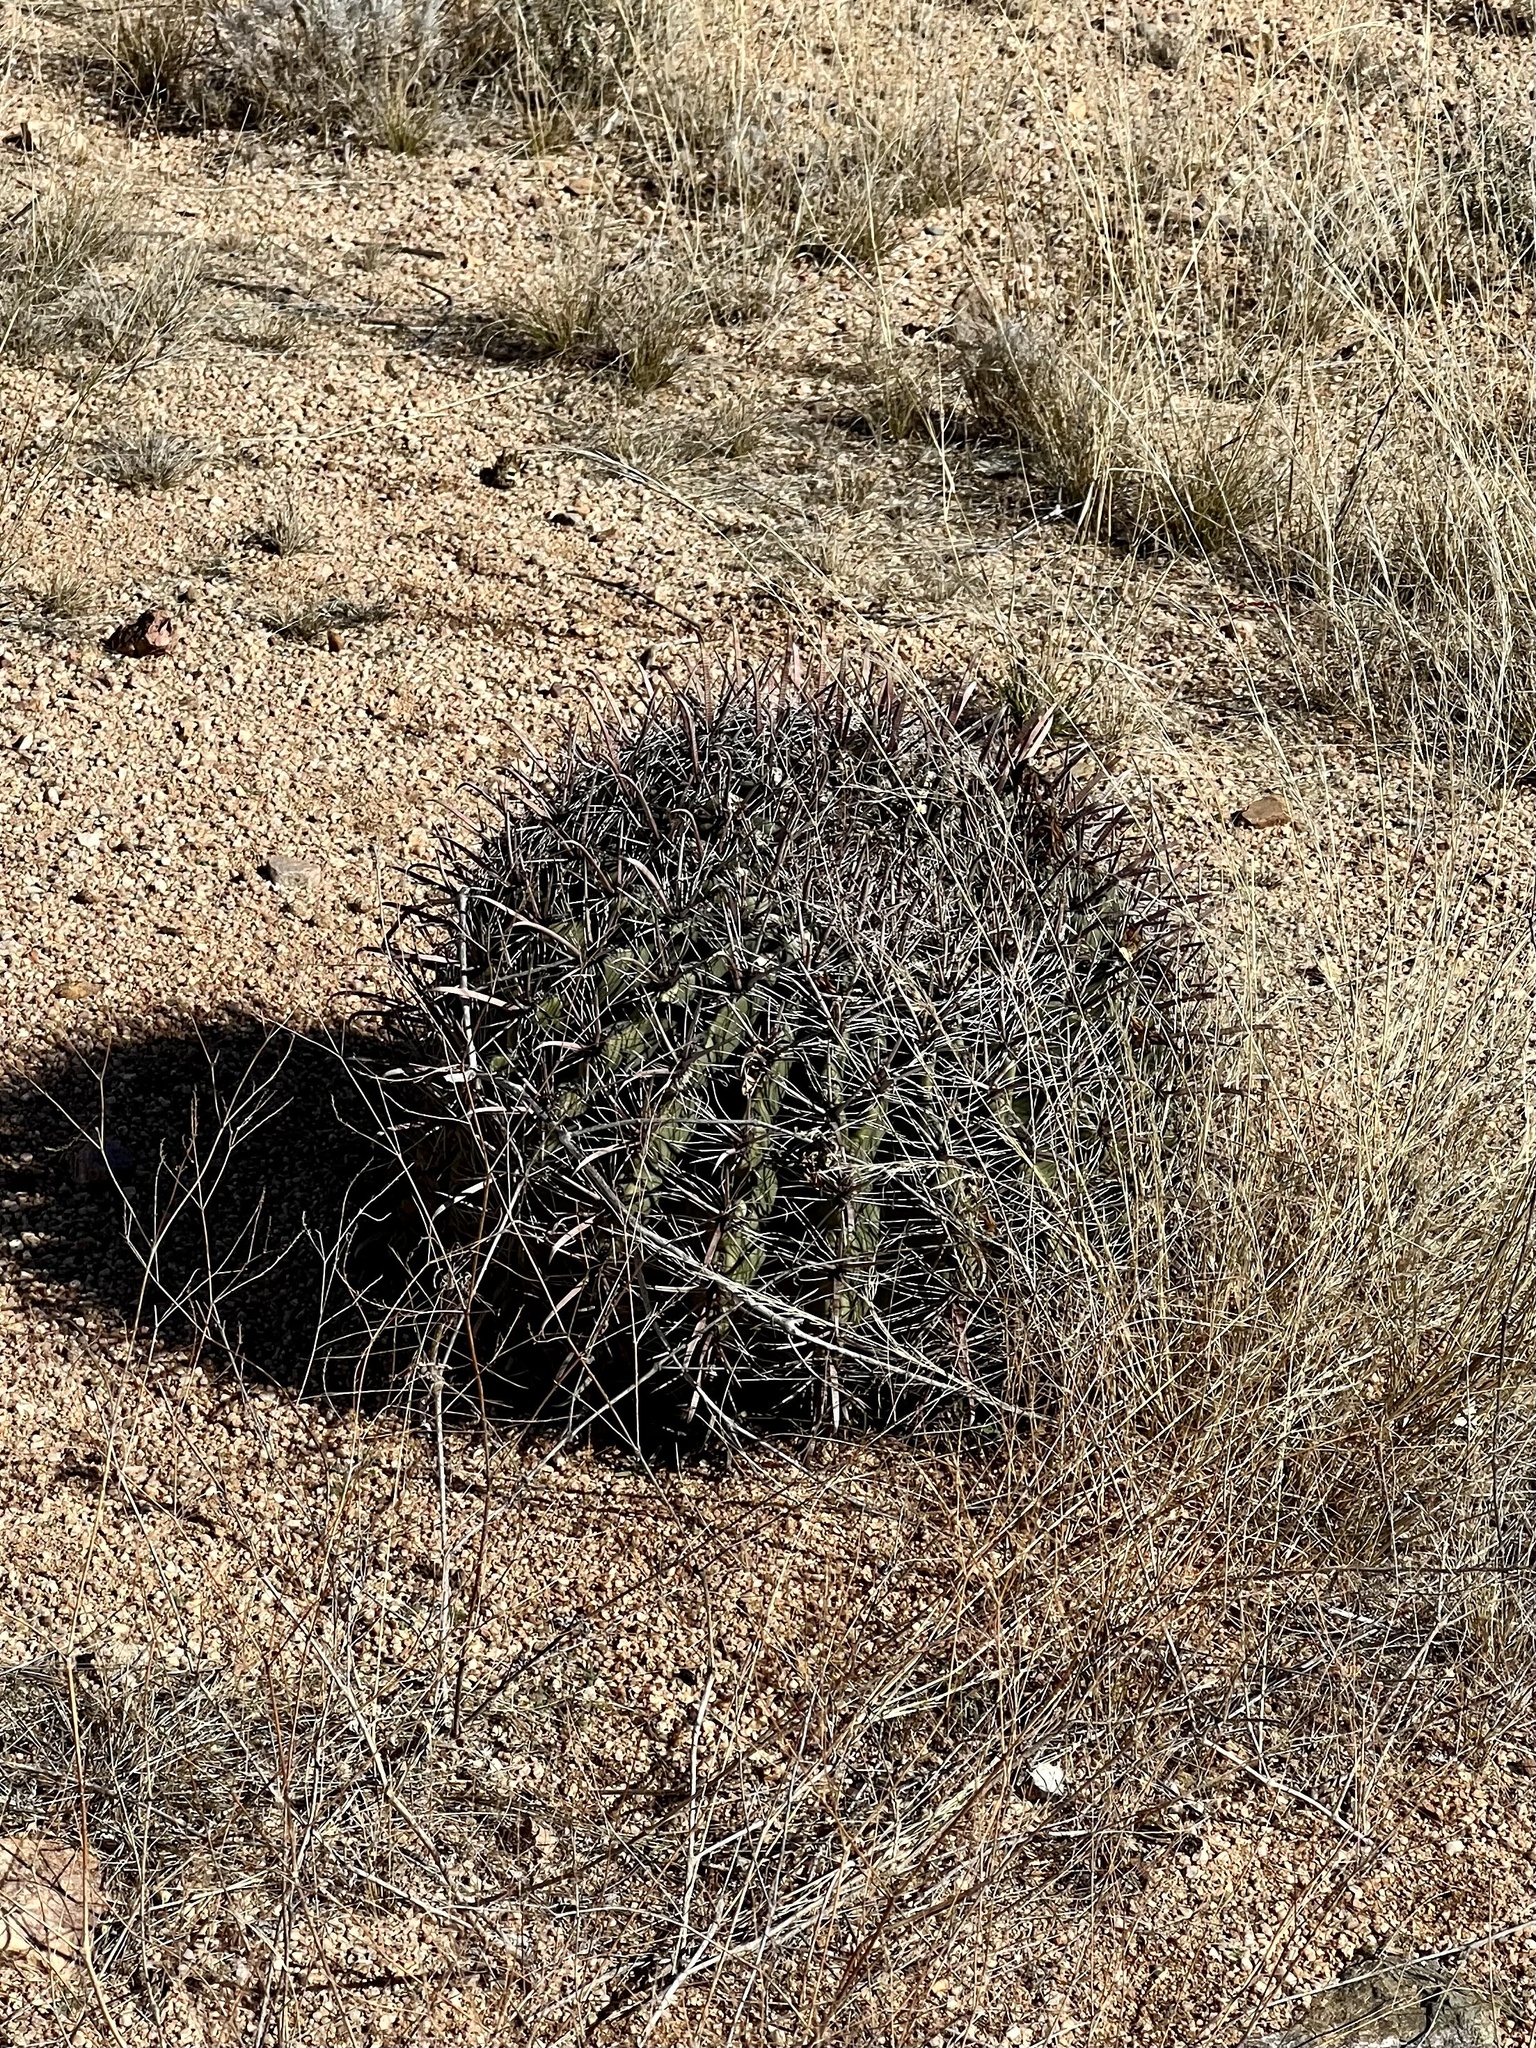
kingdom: Plantae
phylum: Tracheophyta
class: Magnoliopsida
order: Caryophyllales
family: Cactaceae
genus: Ferocactus
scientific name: Ferocactus wislizeni
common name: Candy barrel cactus
